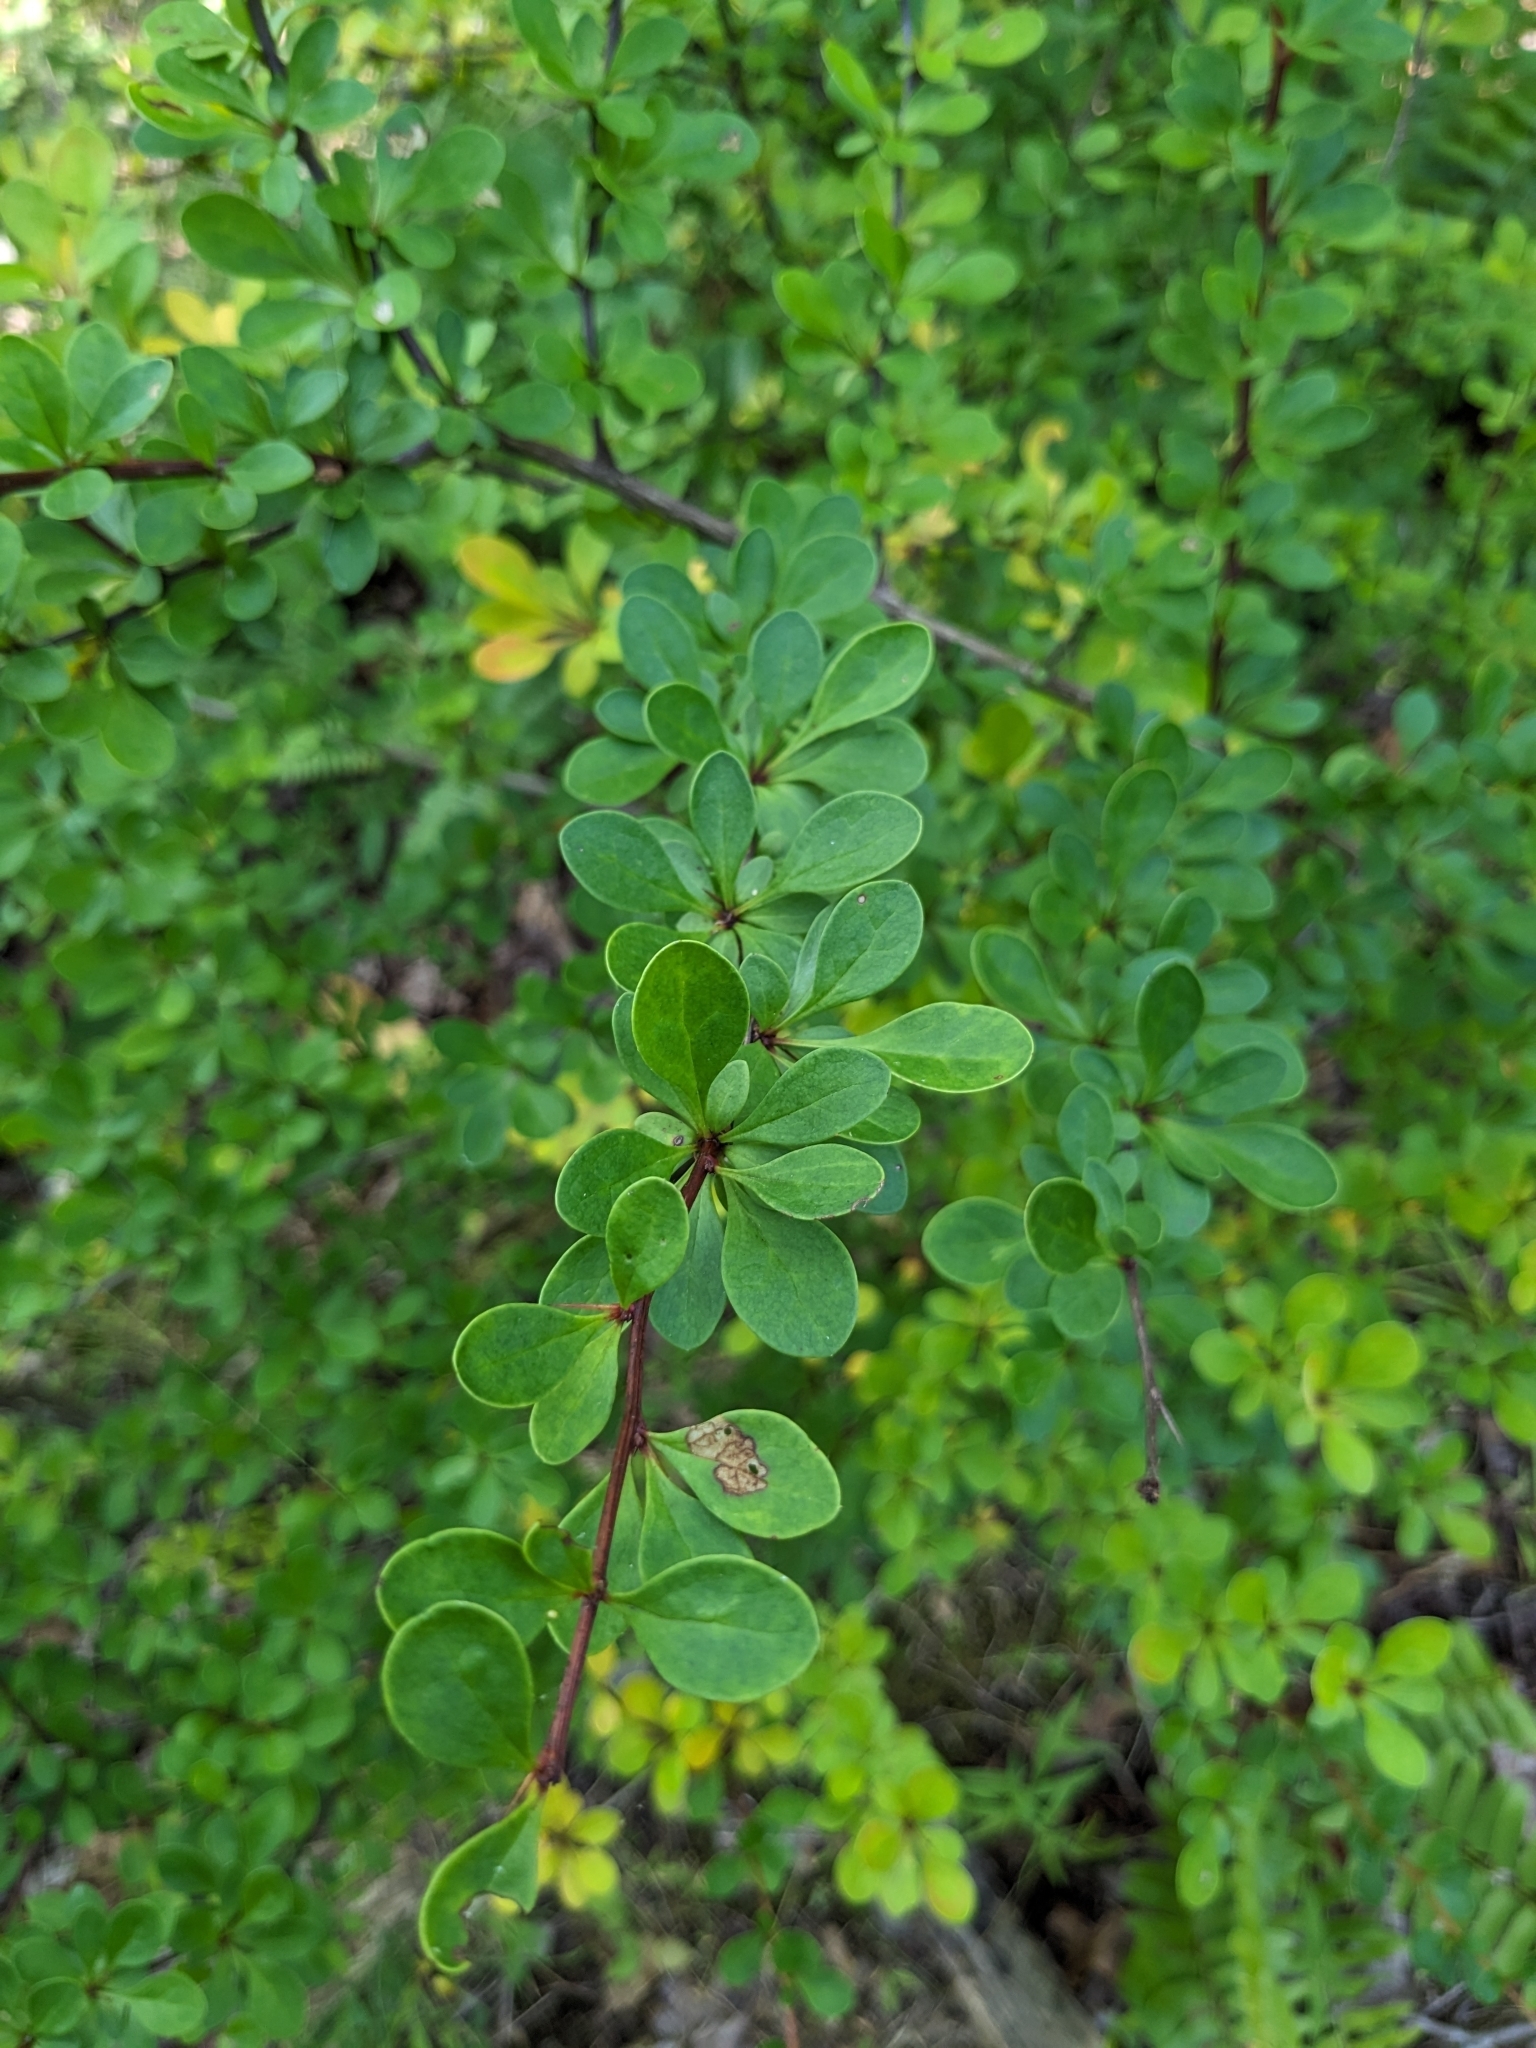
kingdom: Plantae
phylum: Tracheophyta
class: Magnoliopsida
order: Ranunculales
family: Berberidaceae
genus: Berberis
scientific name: Berberis thunbergii
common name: Japanese barberry
